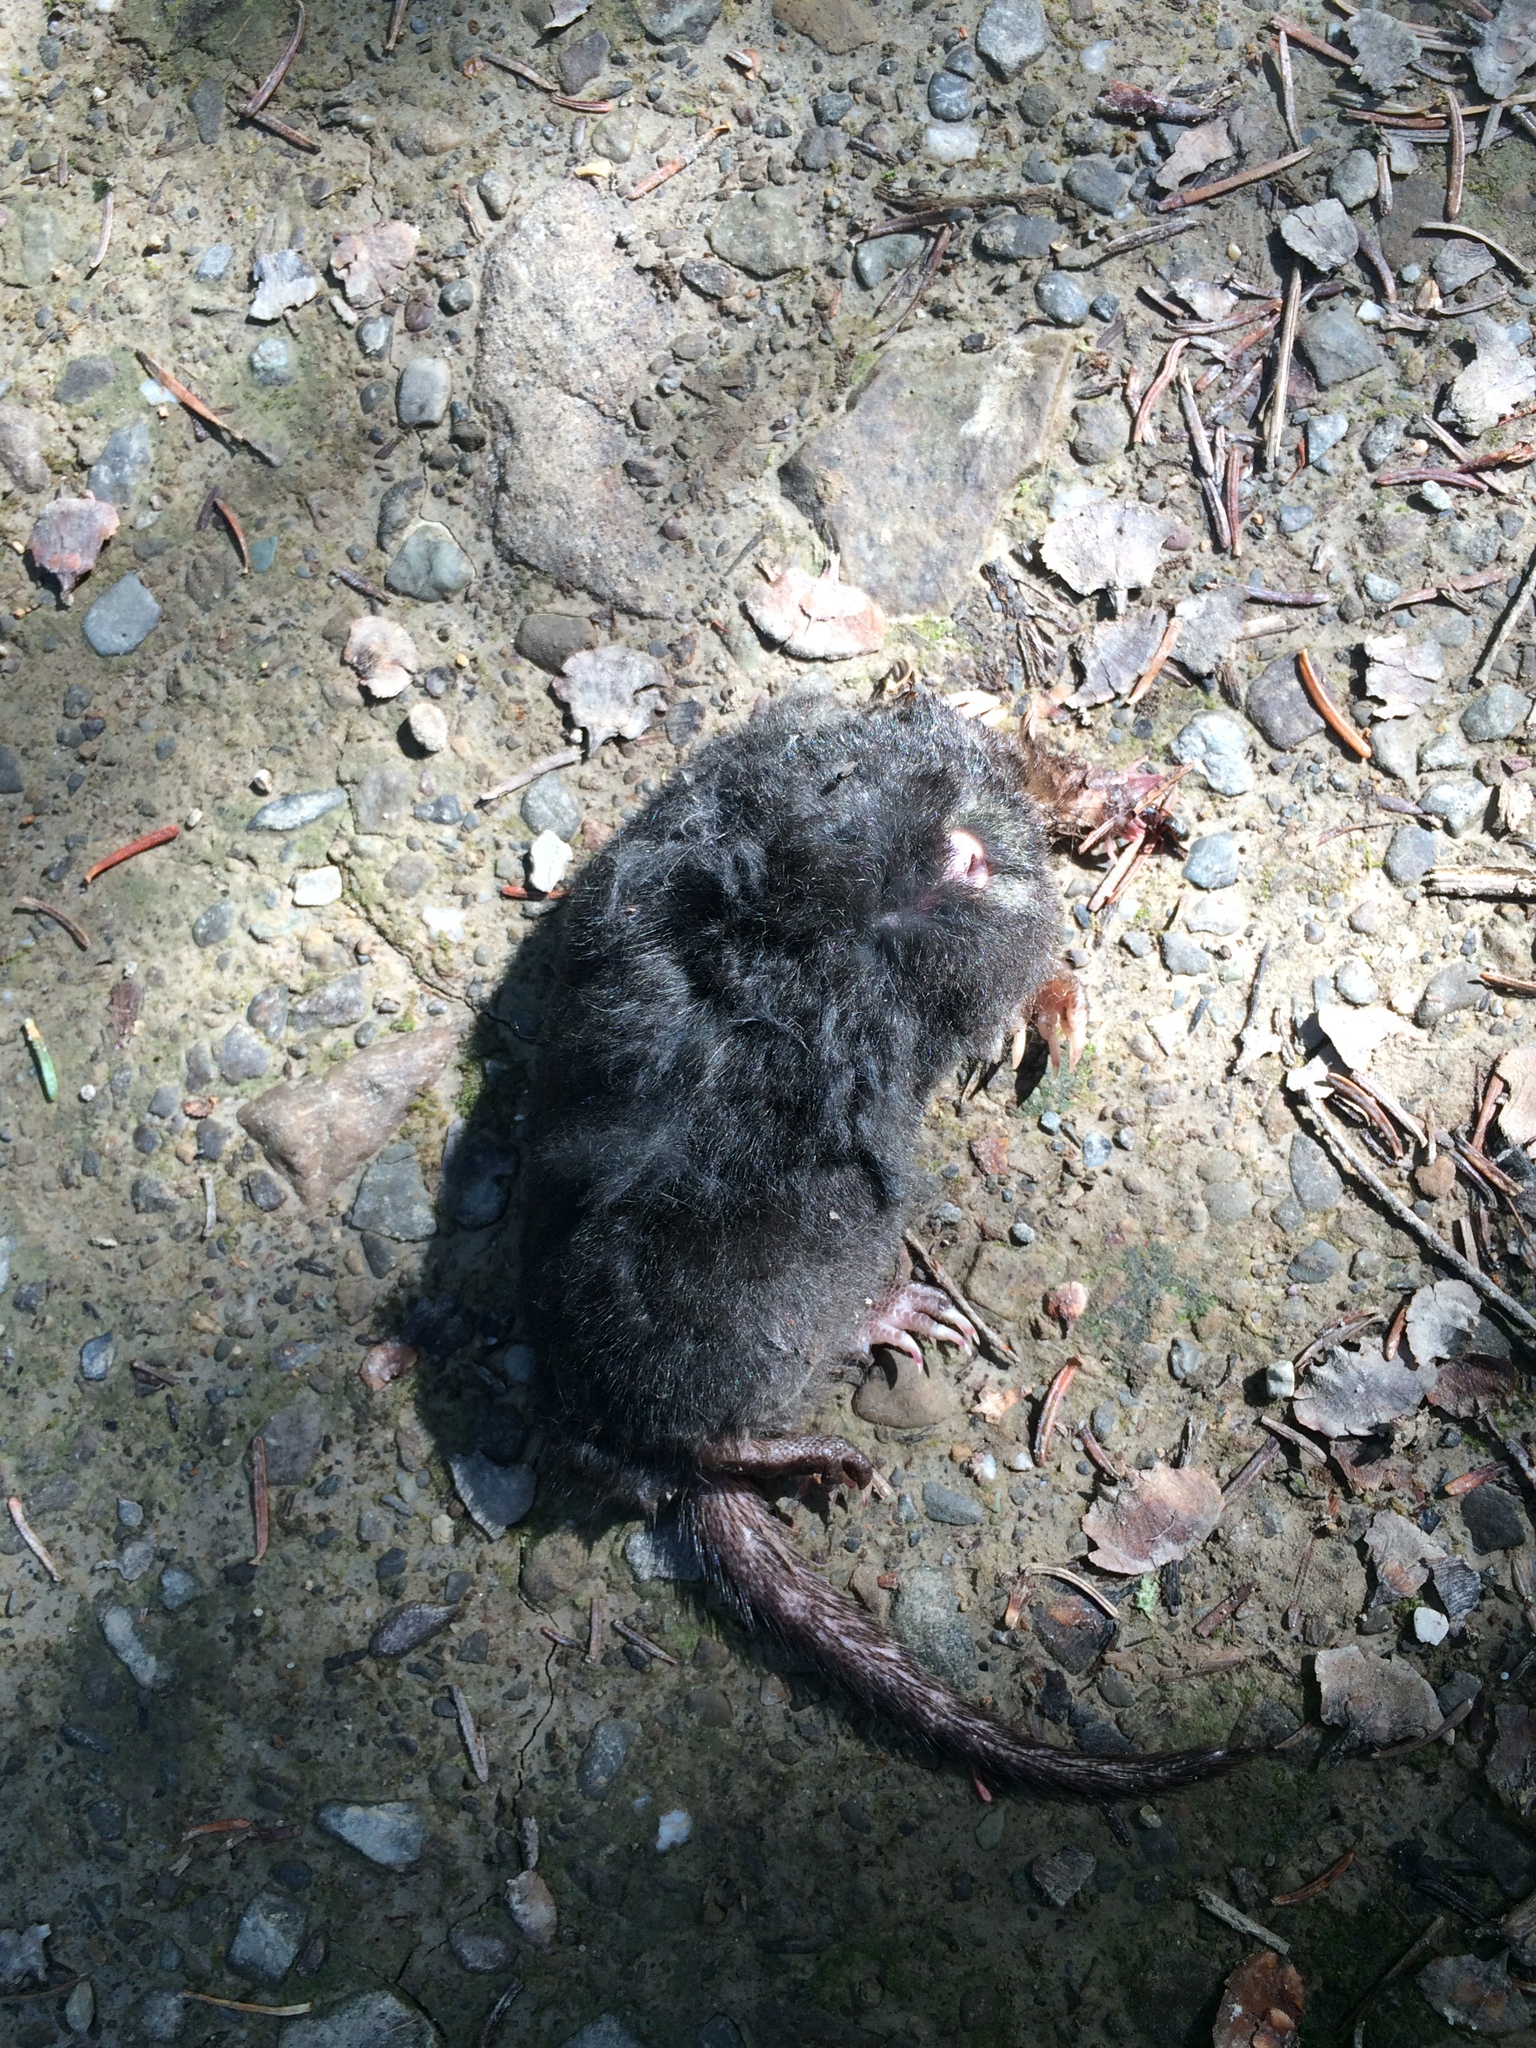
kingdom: Animalia
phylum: Chordata
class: Mammalia
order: Soricomorpha
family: Talpidae
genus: Condylura
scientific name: Condylura cristata
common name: Star-nosed mole
